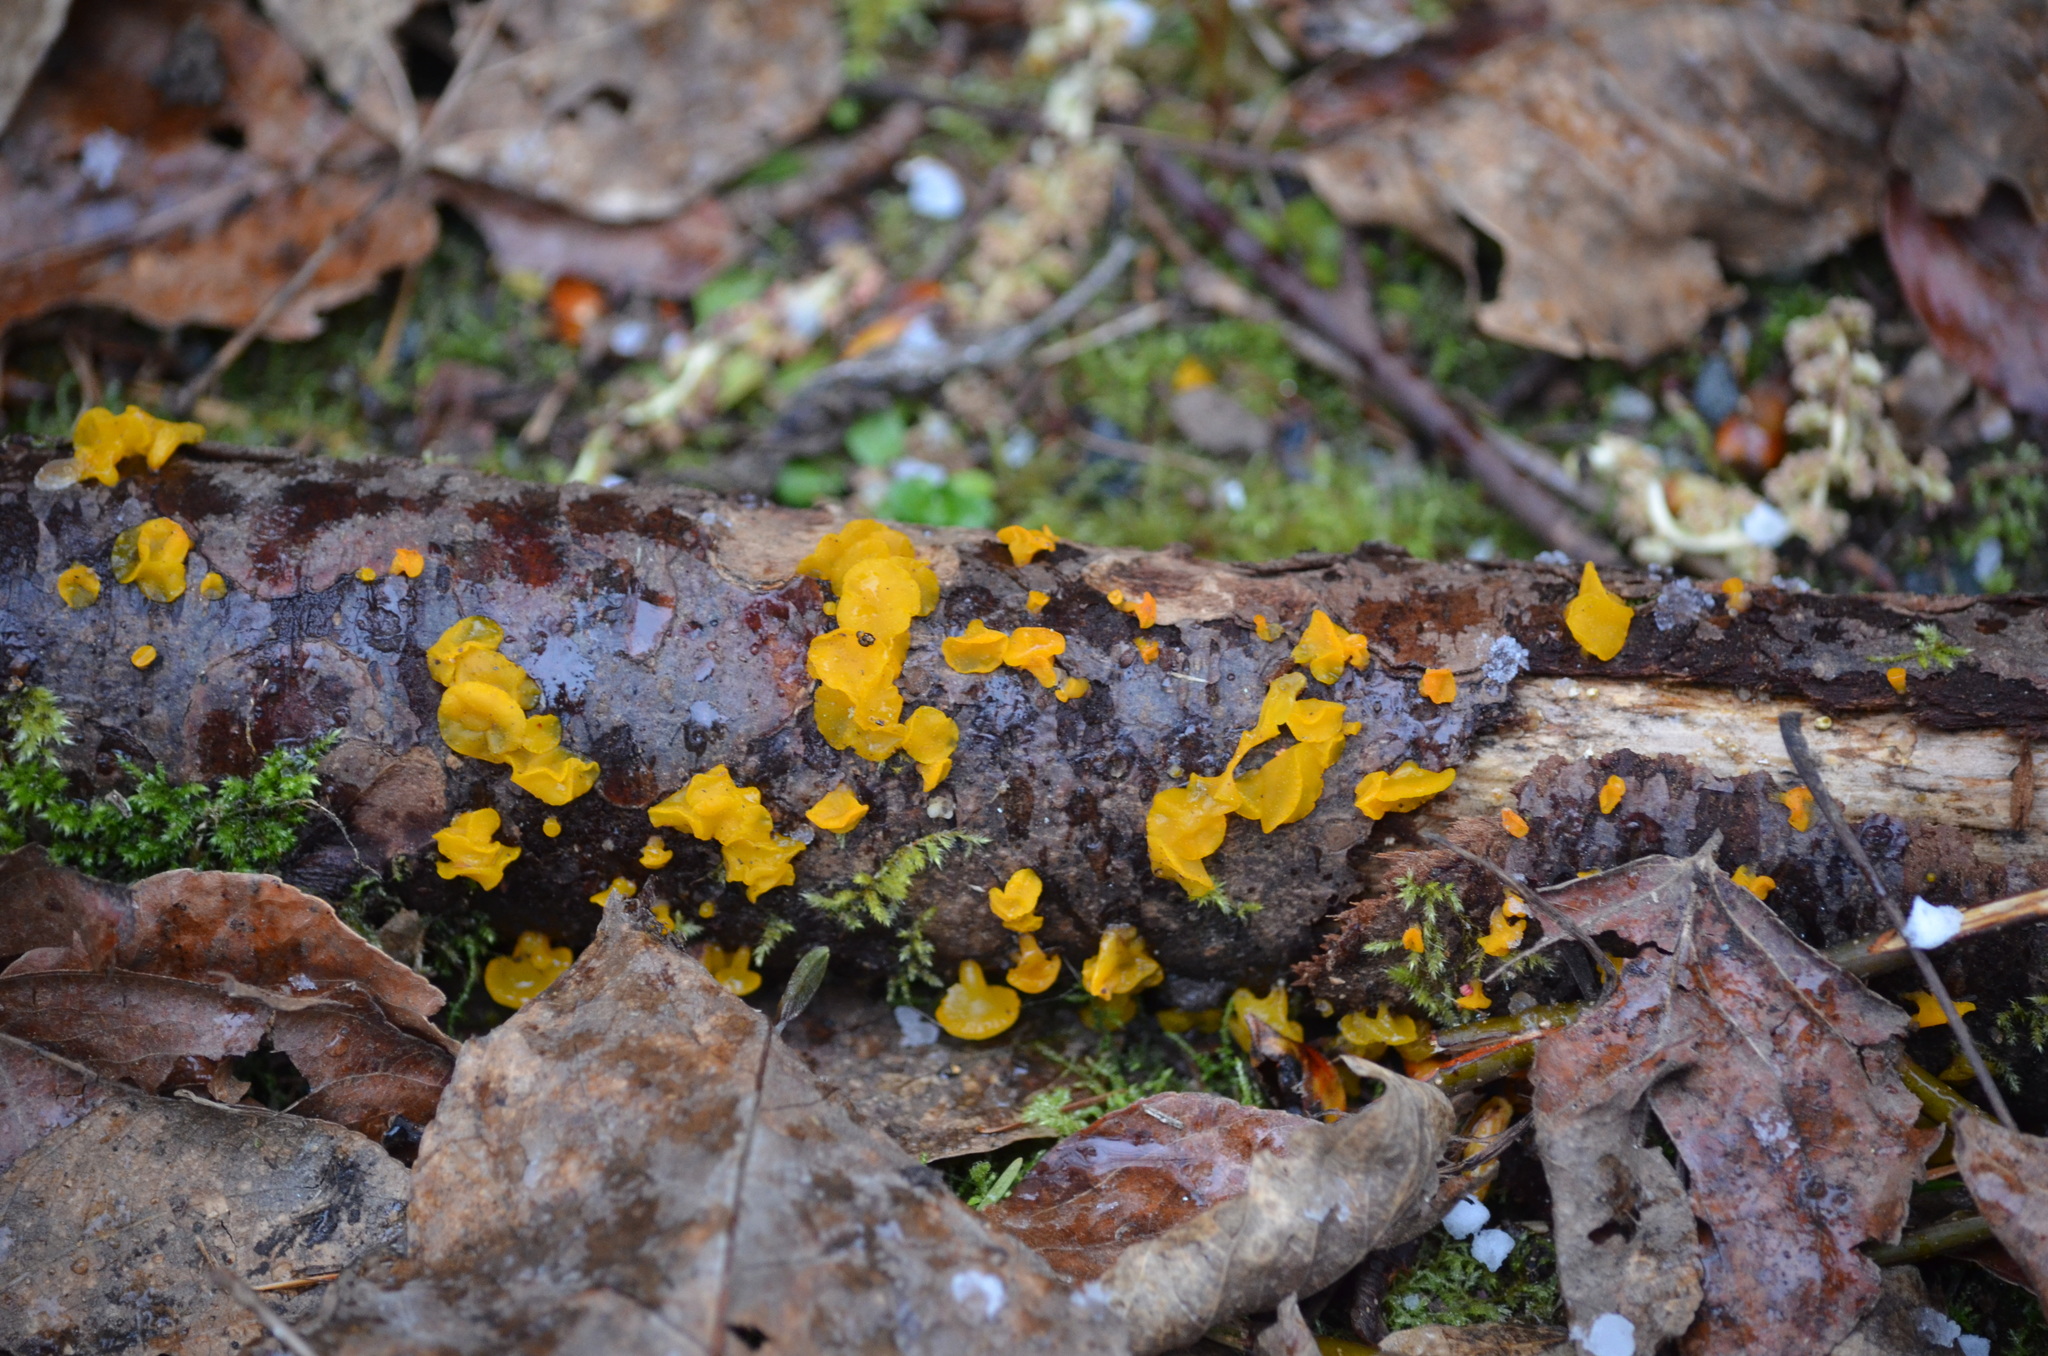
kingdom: Fungi
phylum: Basidiomycota
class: Dacrymycetes
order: Dacrymycetales
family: Dacrymycetaceae
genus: Guepiniopsis
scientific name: Guepiniopsis alpina
